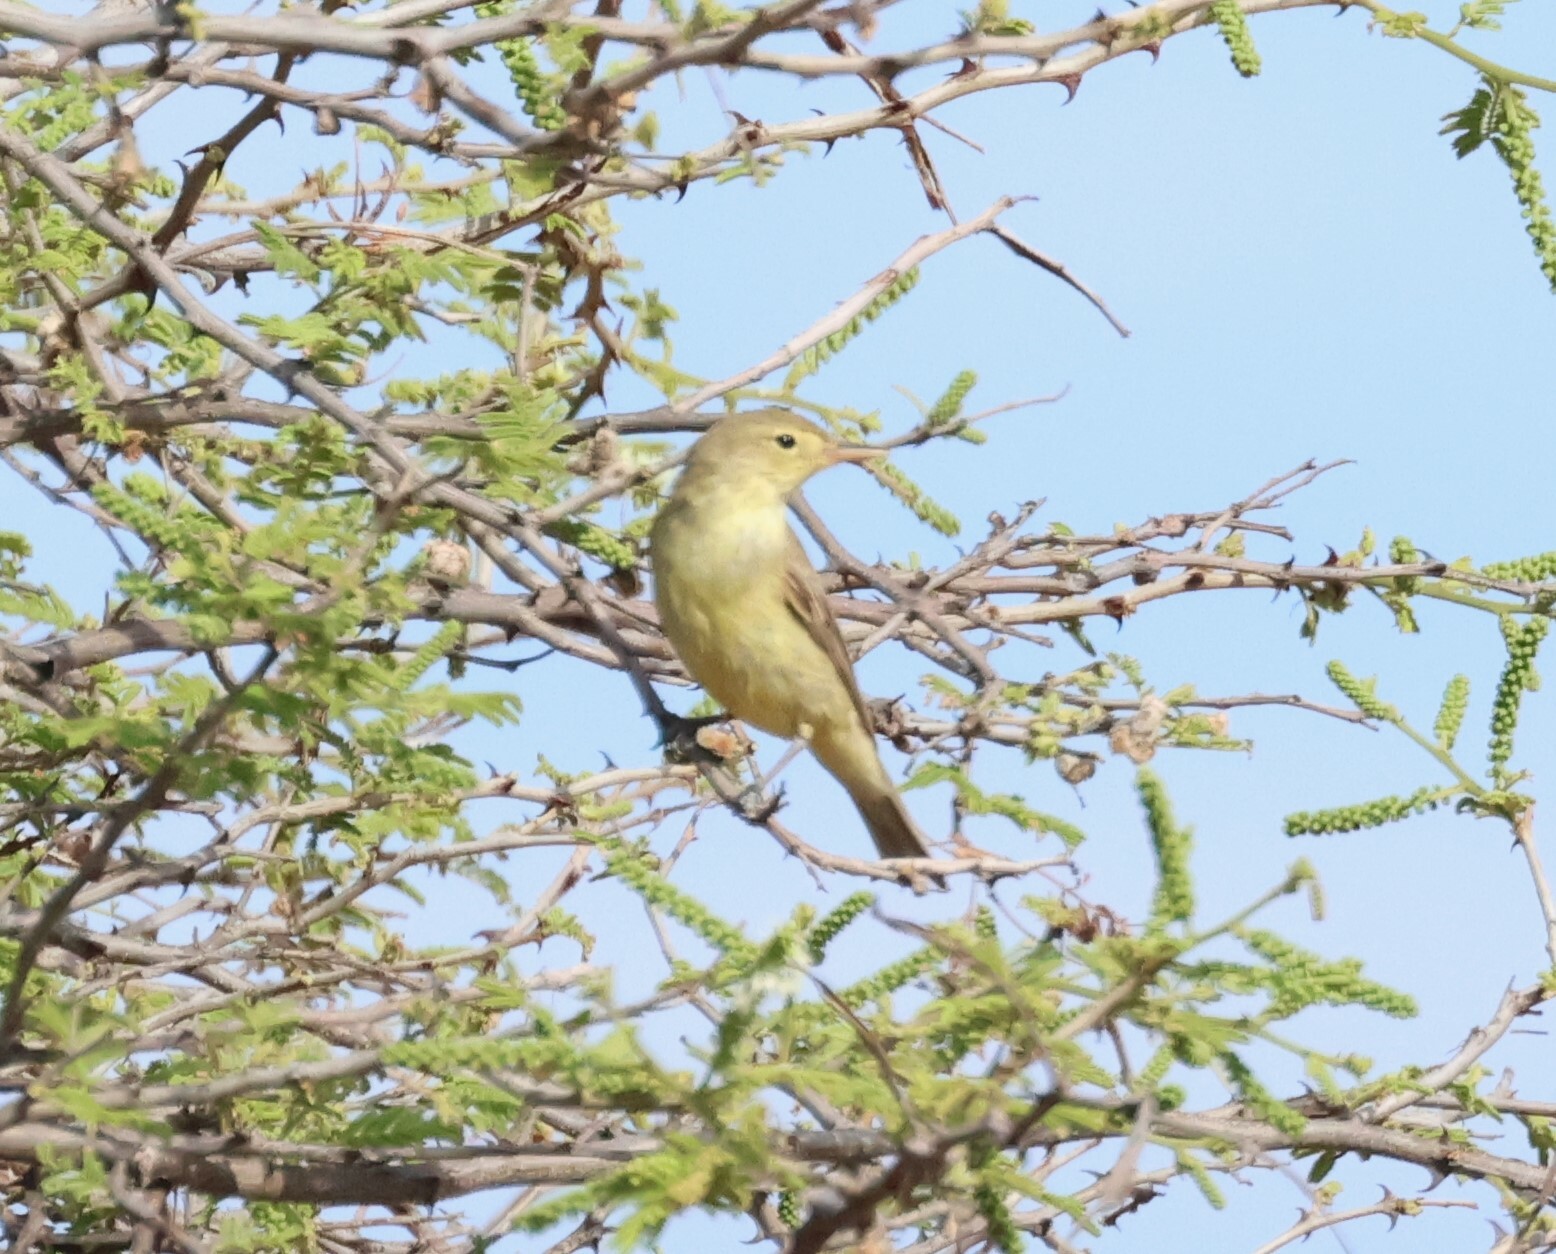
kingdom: Animalia
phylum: Chordata
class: Aves
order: Passeriformes
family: Acrocephalidae
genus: Hippolais
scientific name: Hippolais icterina
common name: Icterine warbler
